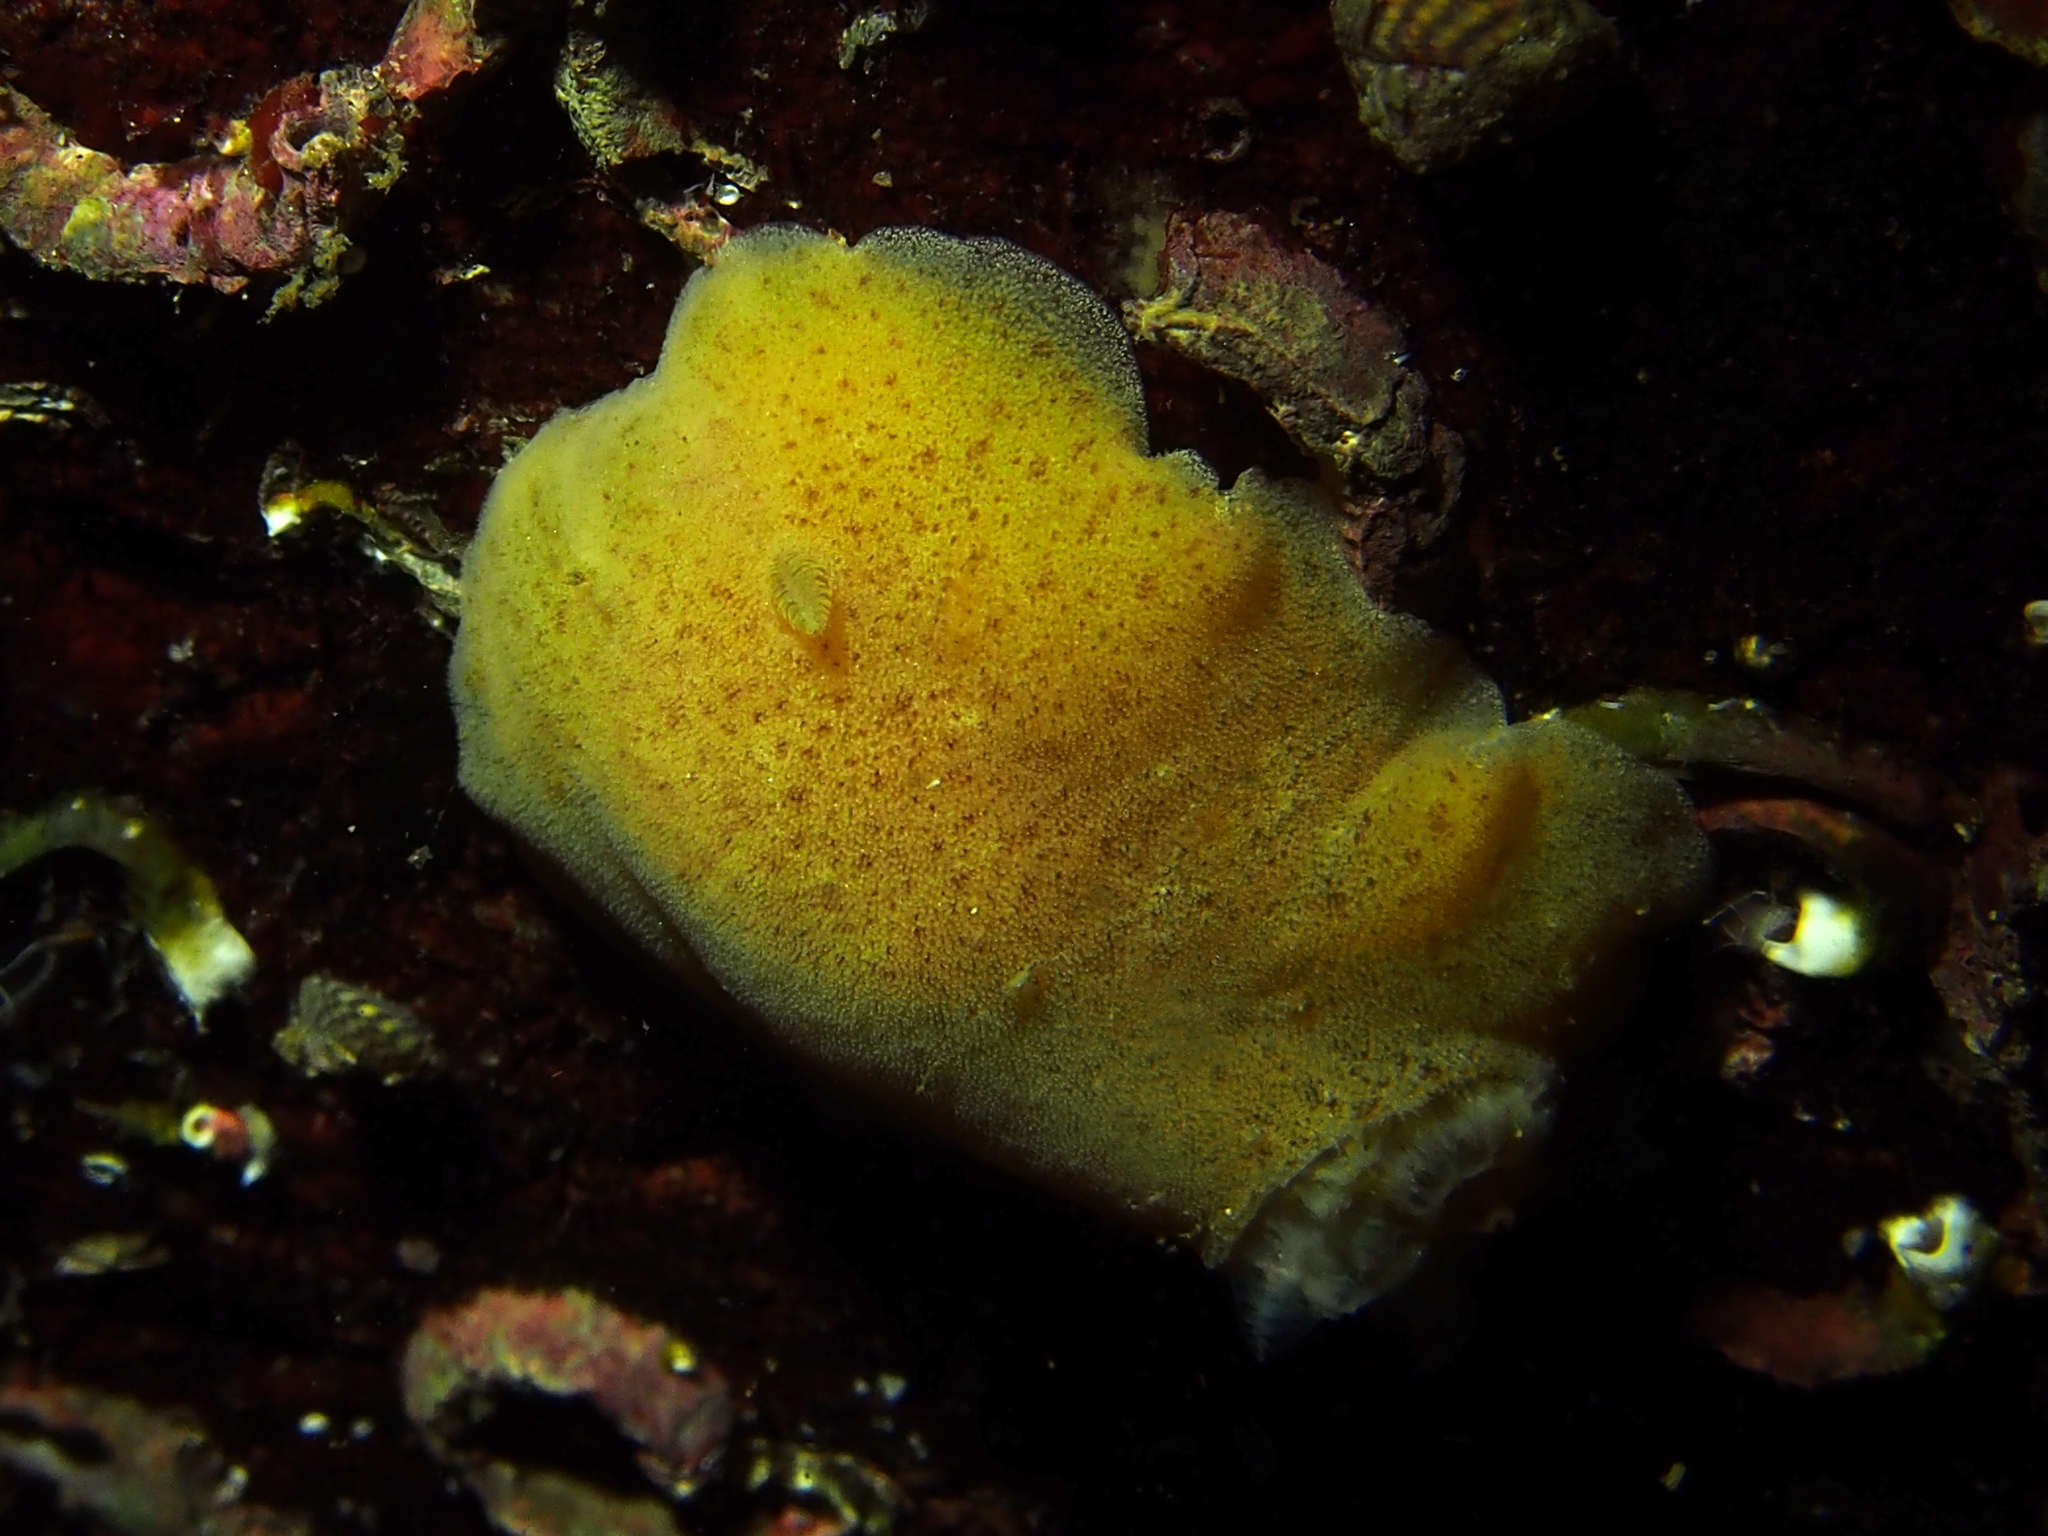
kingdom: Animalia
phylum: Mollusca
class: Gastropoda
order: Nudibranchia
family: Discodorididae
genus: Jorunna
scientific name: Jorunna tomentosa
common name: Grey sea slug
